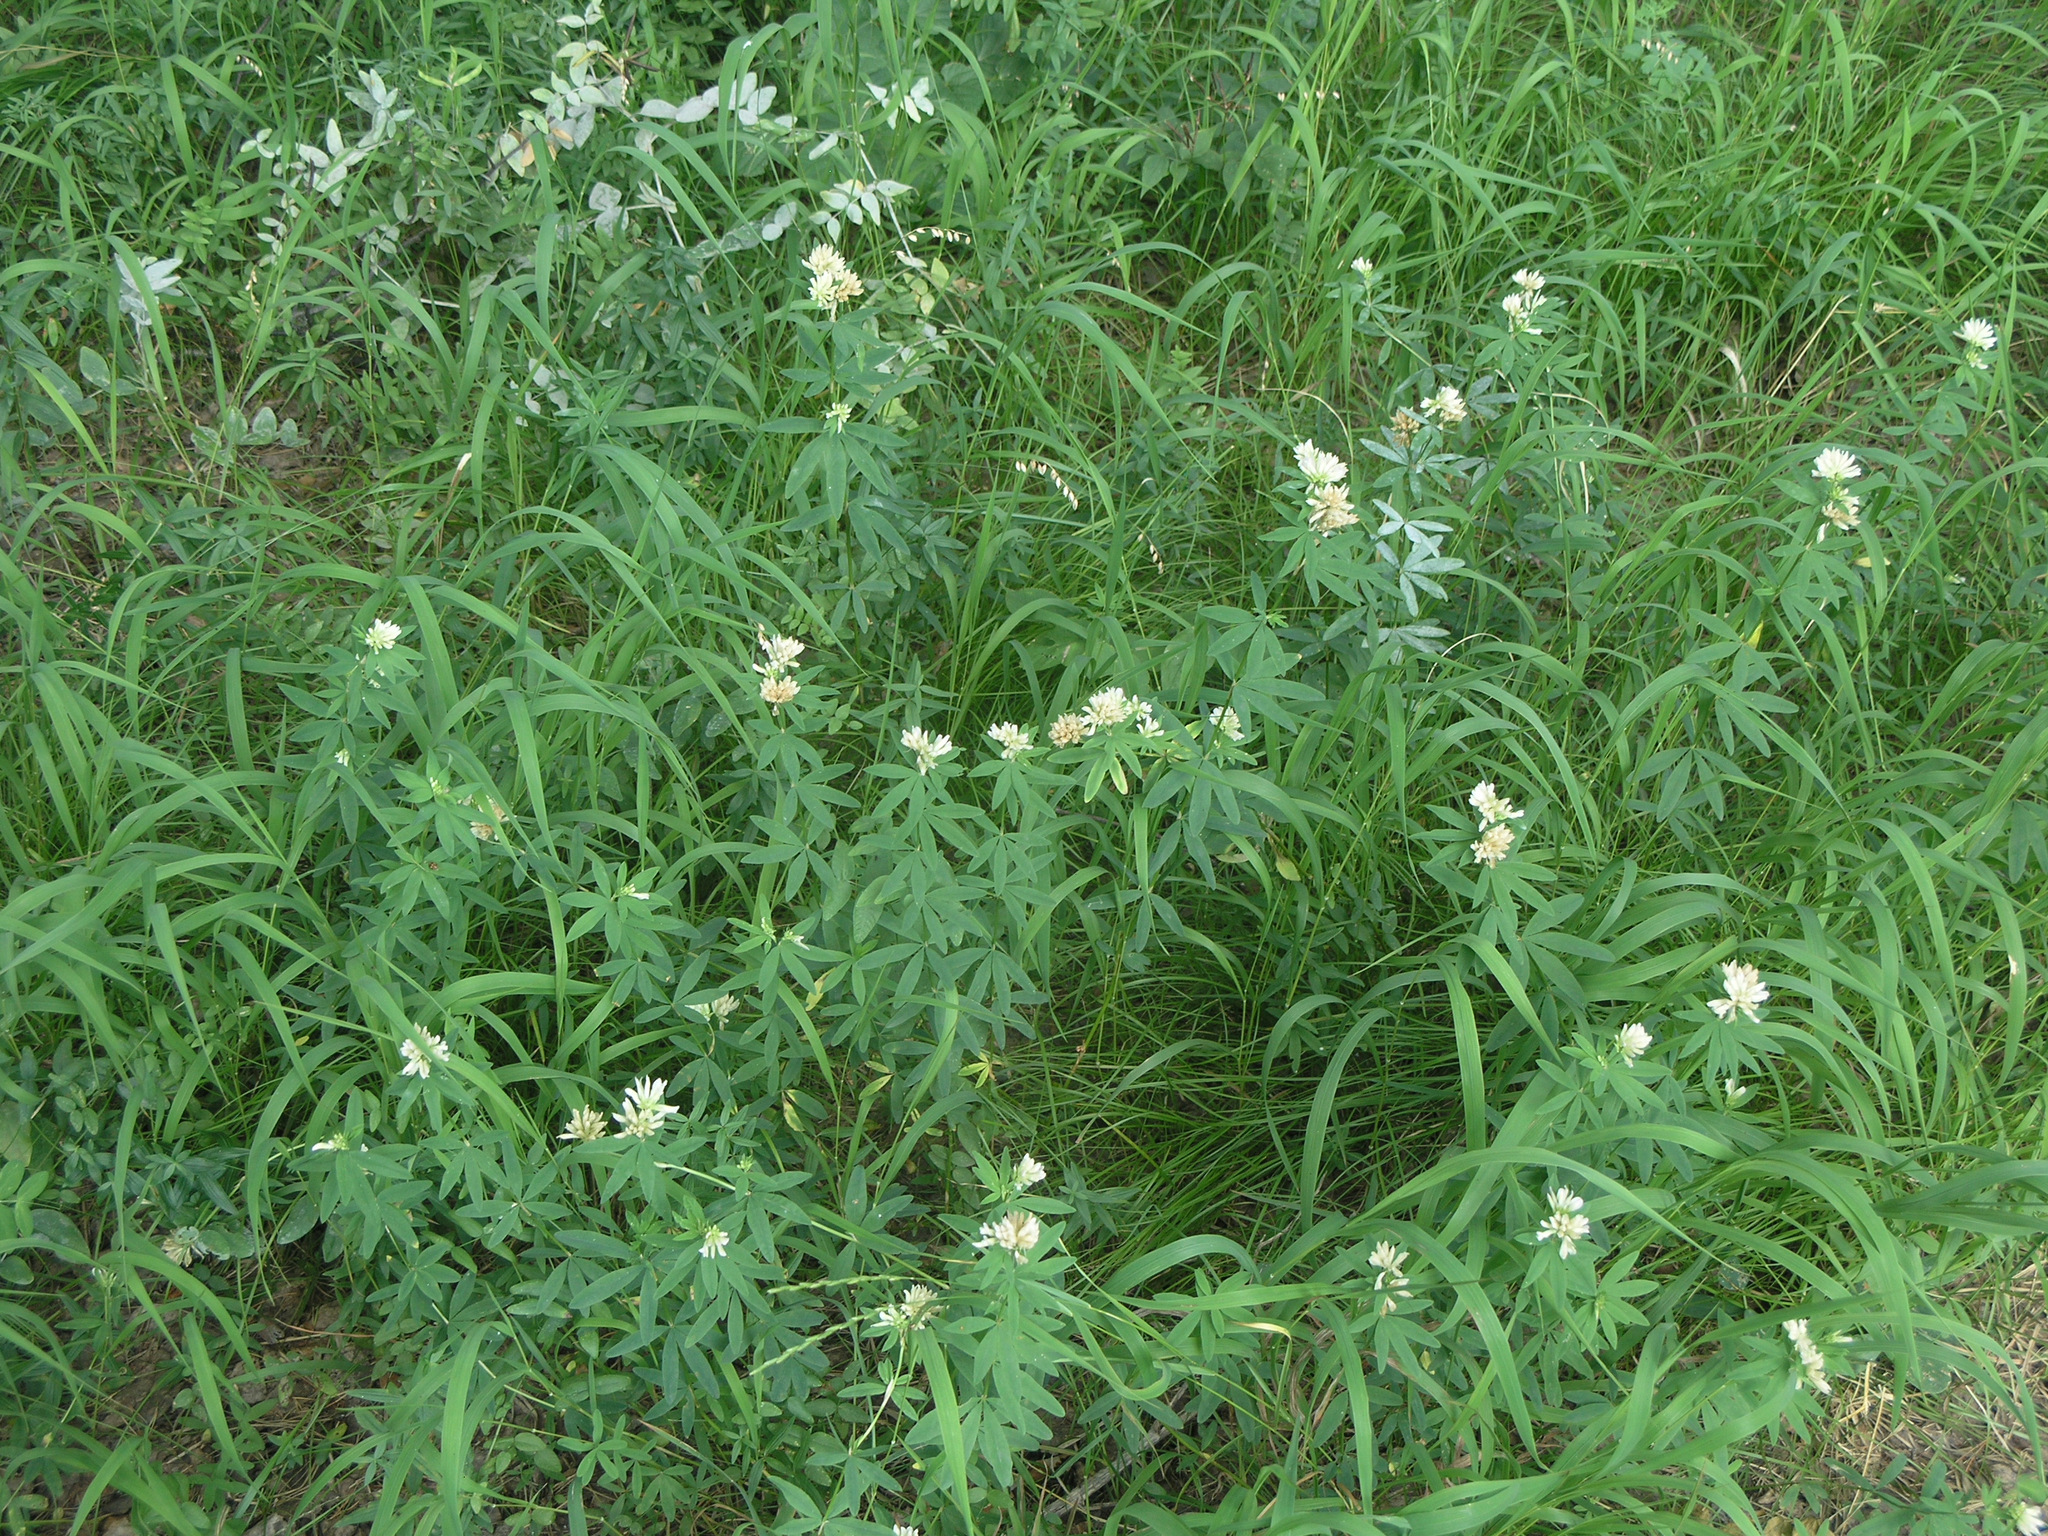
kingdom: Plantae
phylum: Tracheophyta
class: Magnoliopsida
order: Fabales
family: Fabaceae
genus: Trifolium
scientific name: Trifolium lupinaster
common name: Lupine clover
